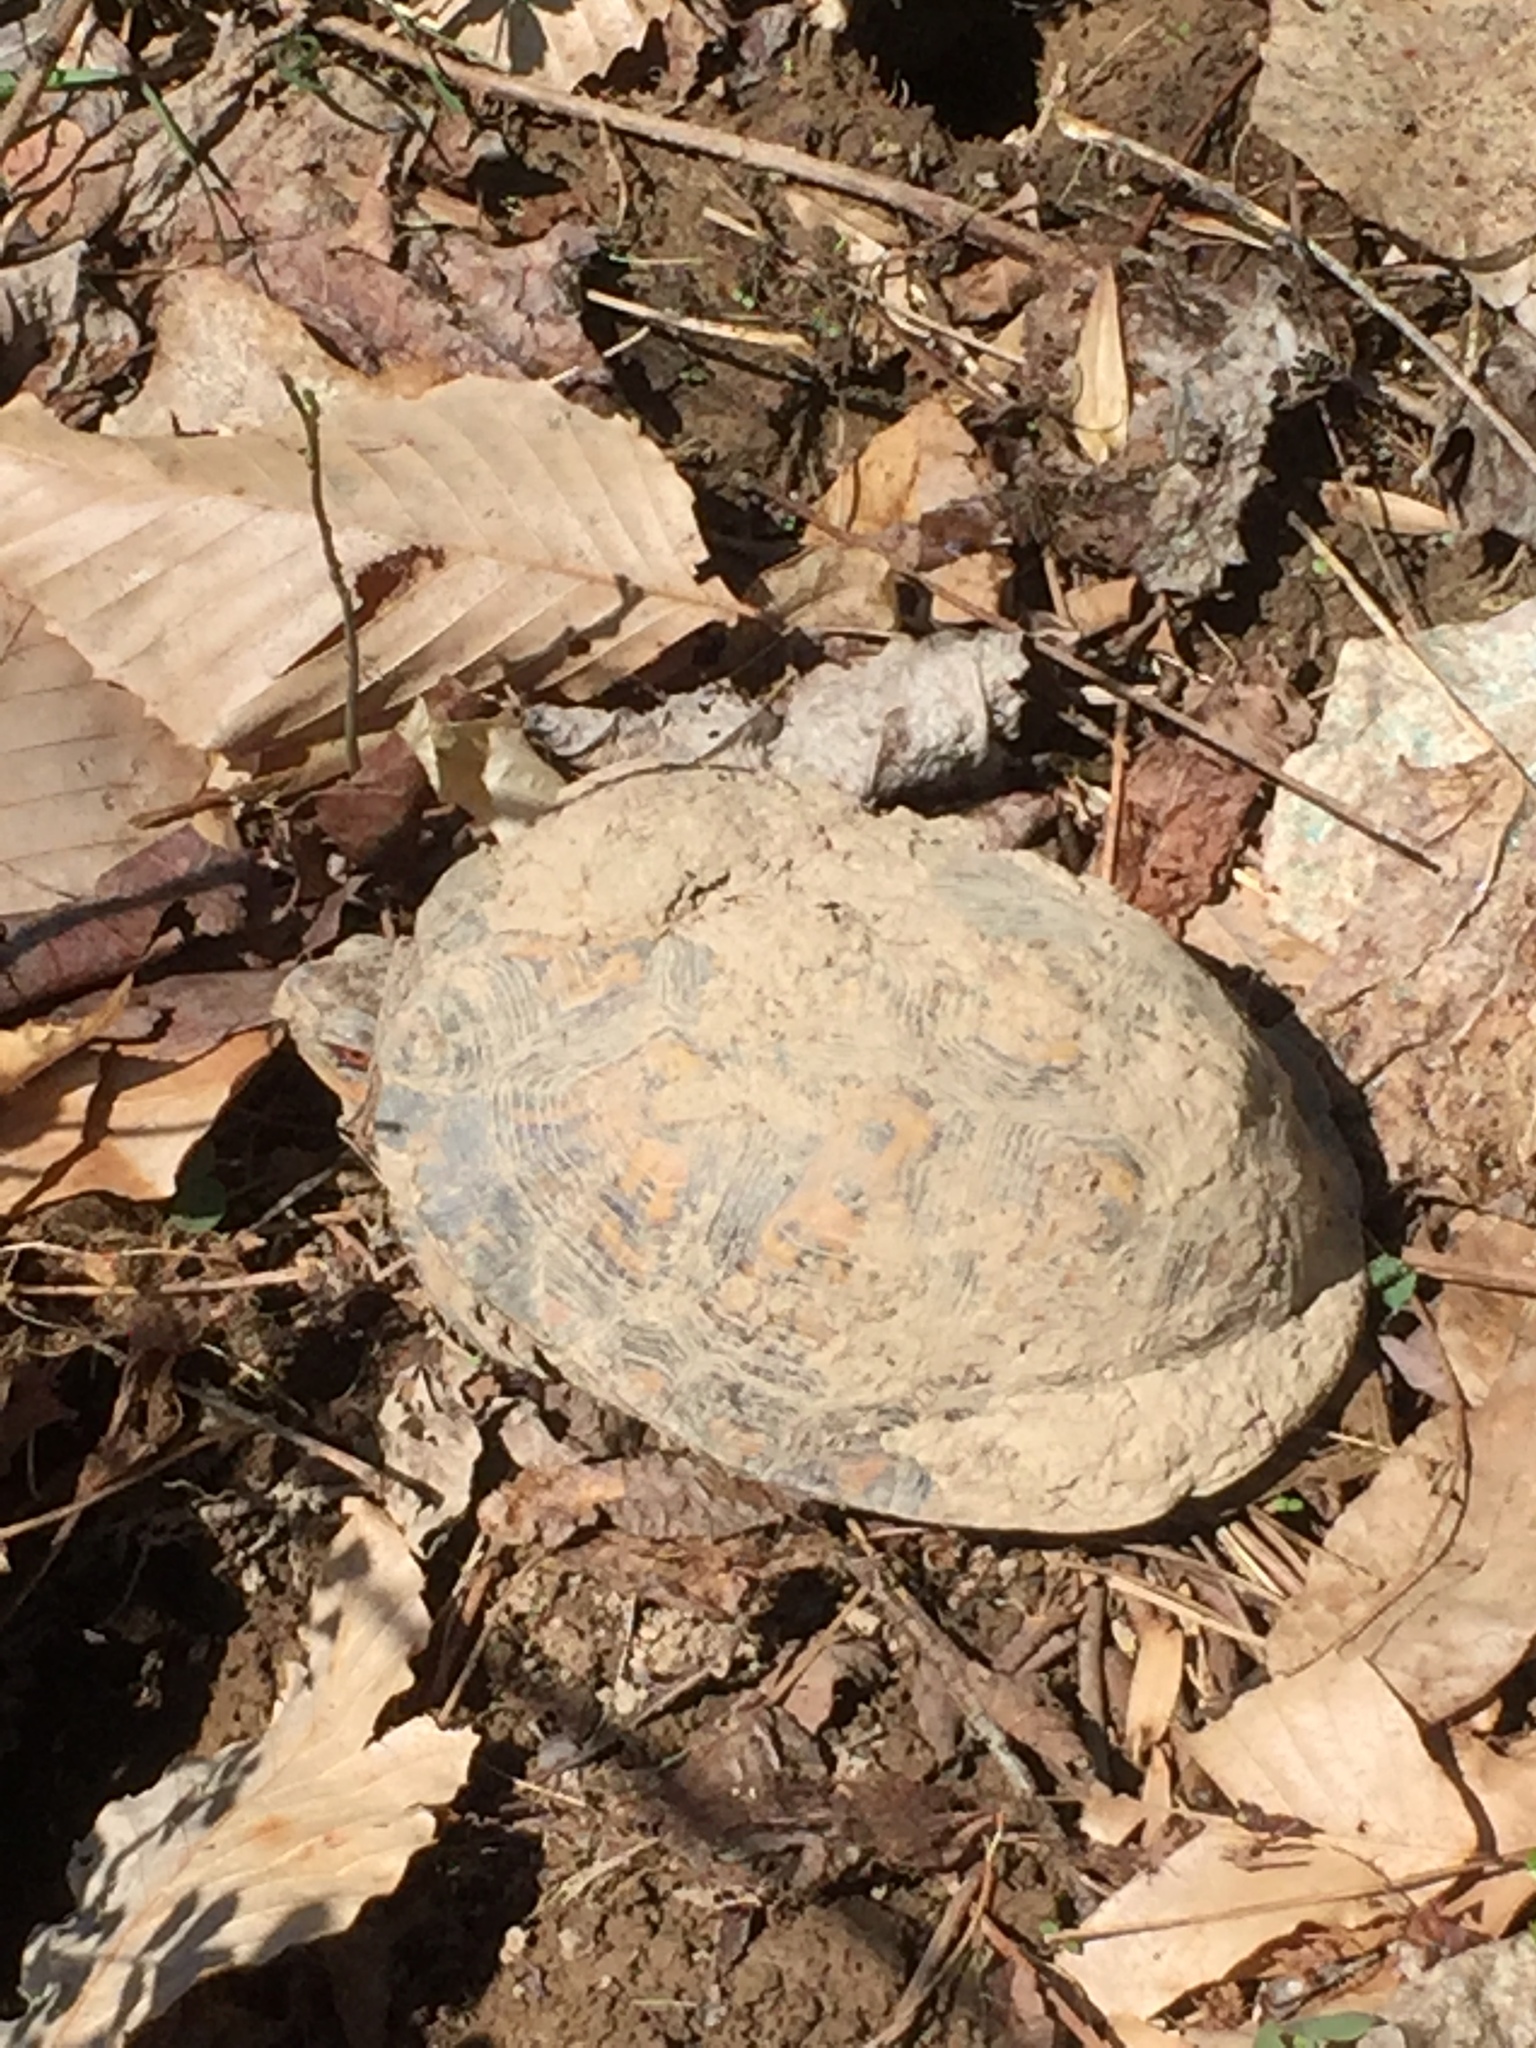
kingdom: Animalia
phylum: Chordata
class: Testudines
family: Emydidae
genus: Terrapene
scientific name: Terrapene carolina
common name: Common box turtle
